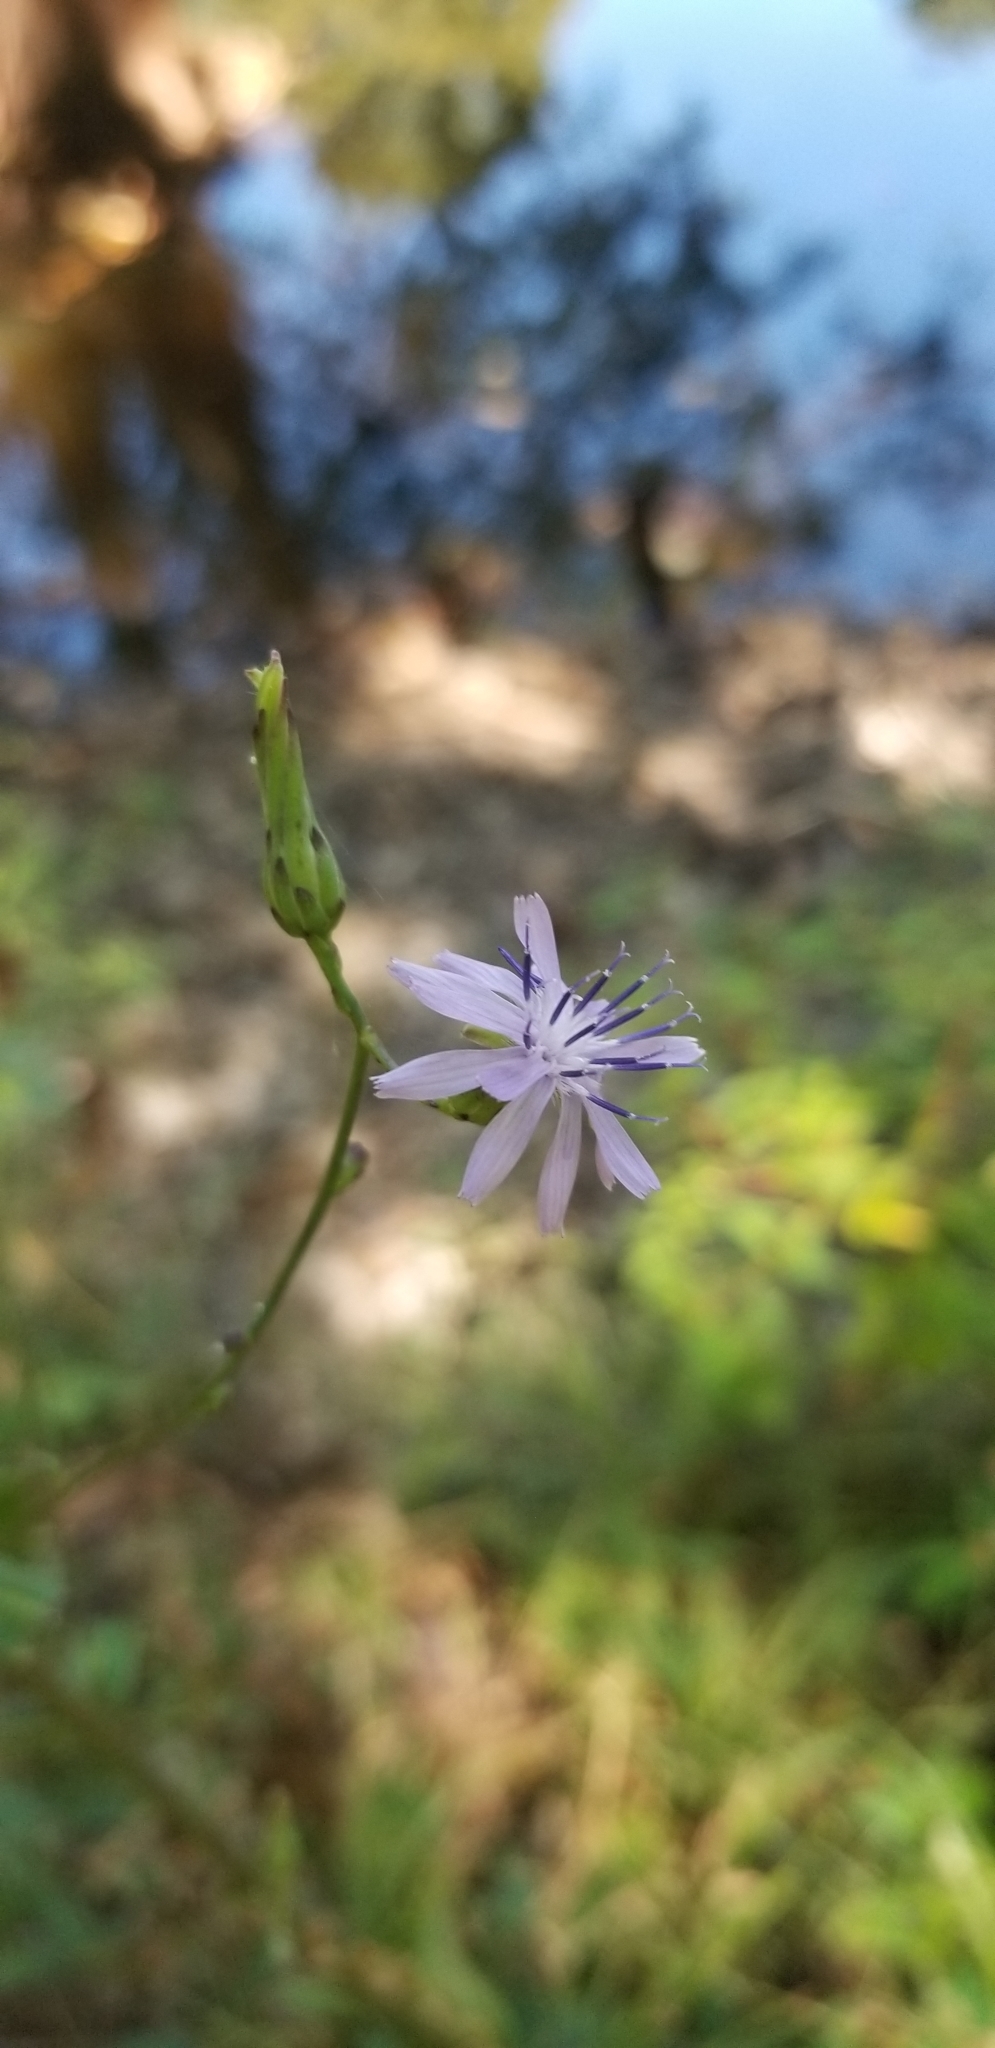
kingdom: Plantae
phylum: Tracheophyta
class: Magnoliopsida
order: Asterales
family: Asteraceae
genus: Lactuca
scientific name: Lactuca floridana
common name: Woodland lettuce
